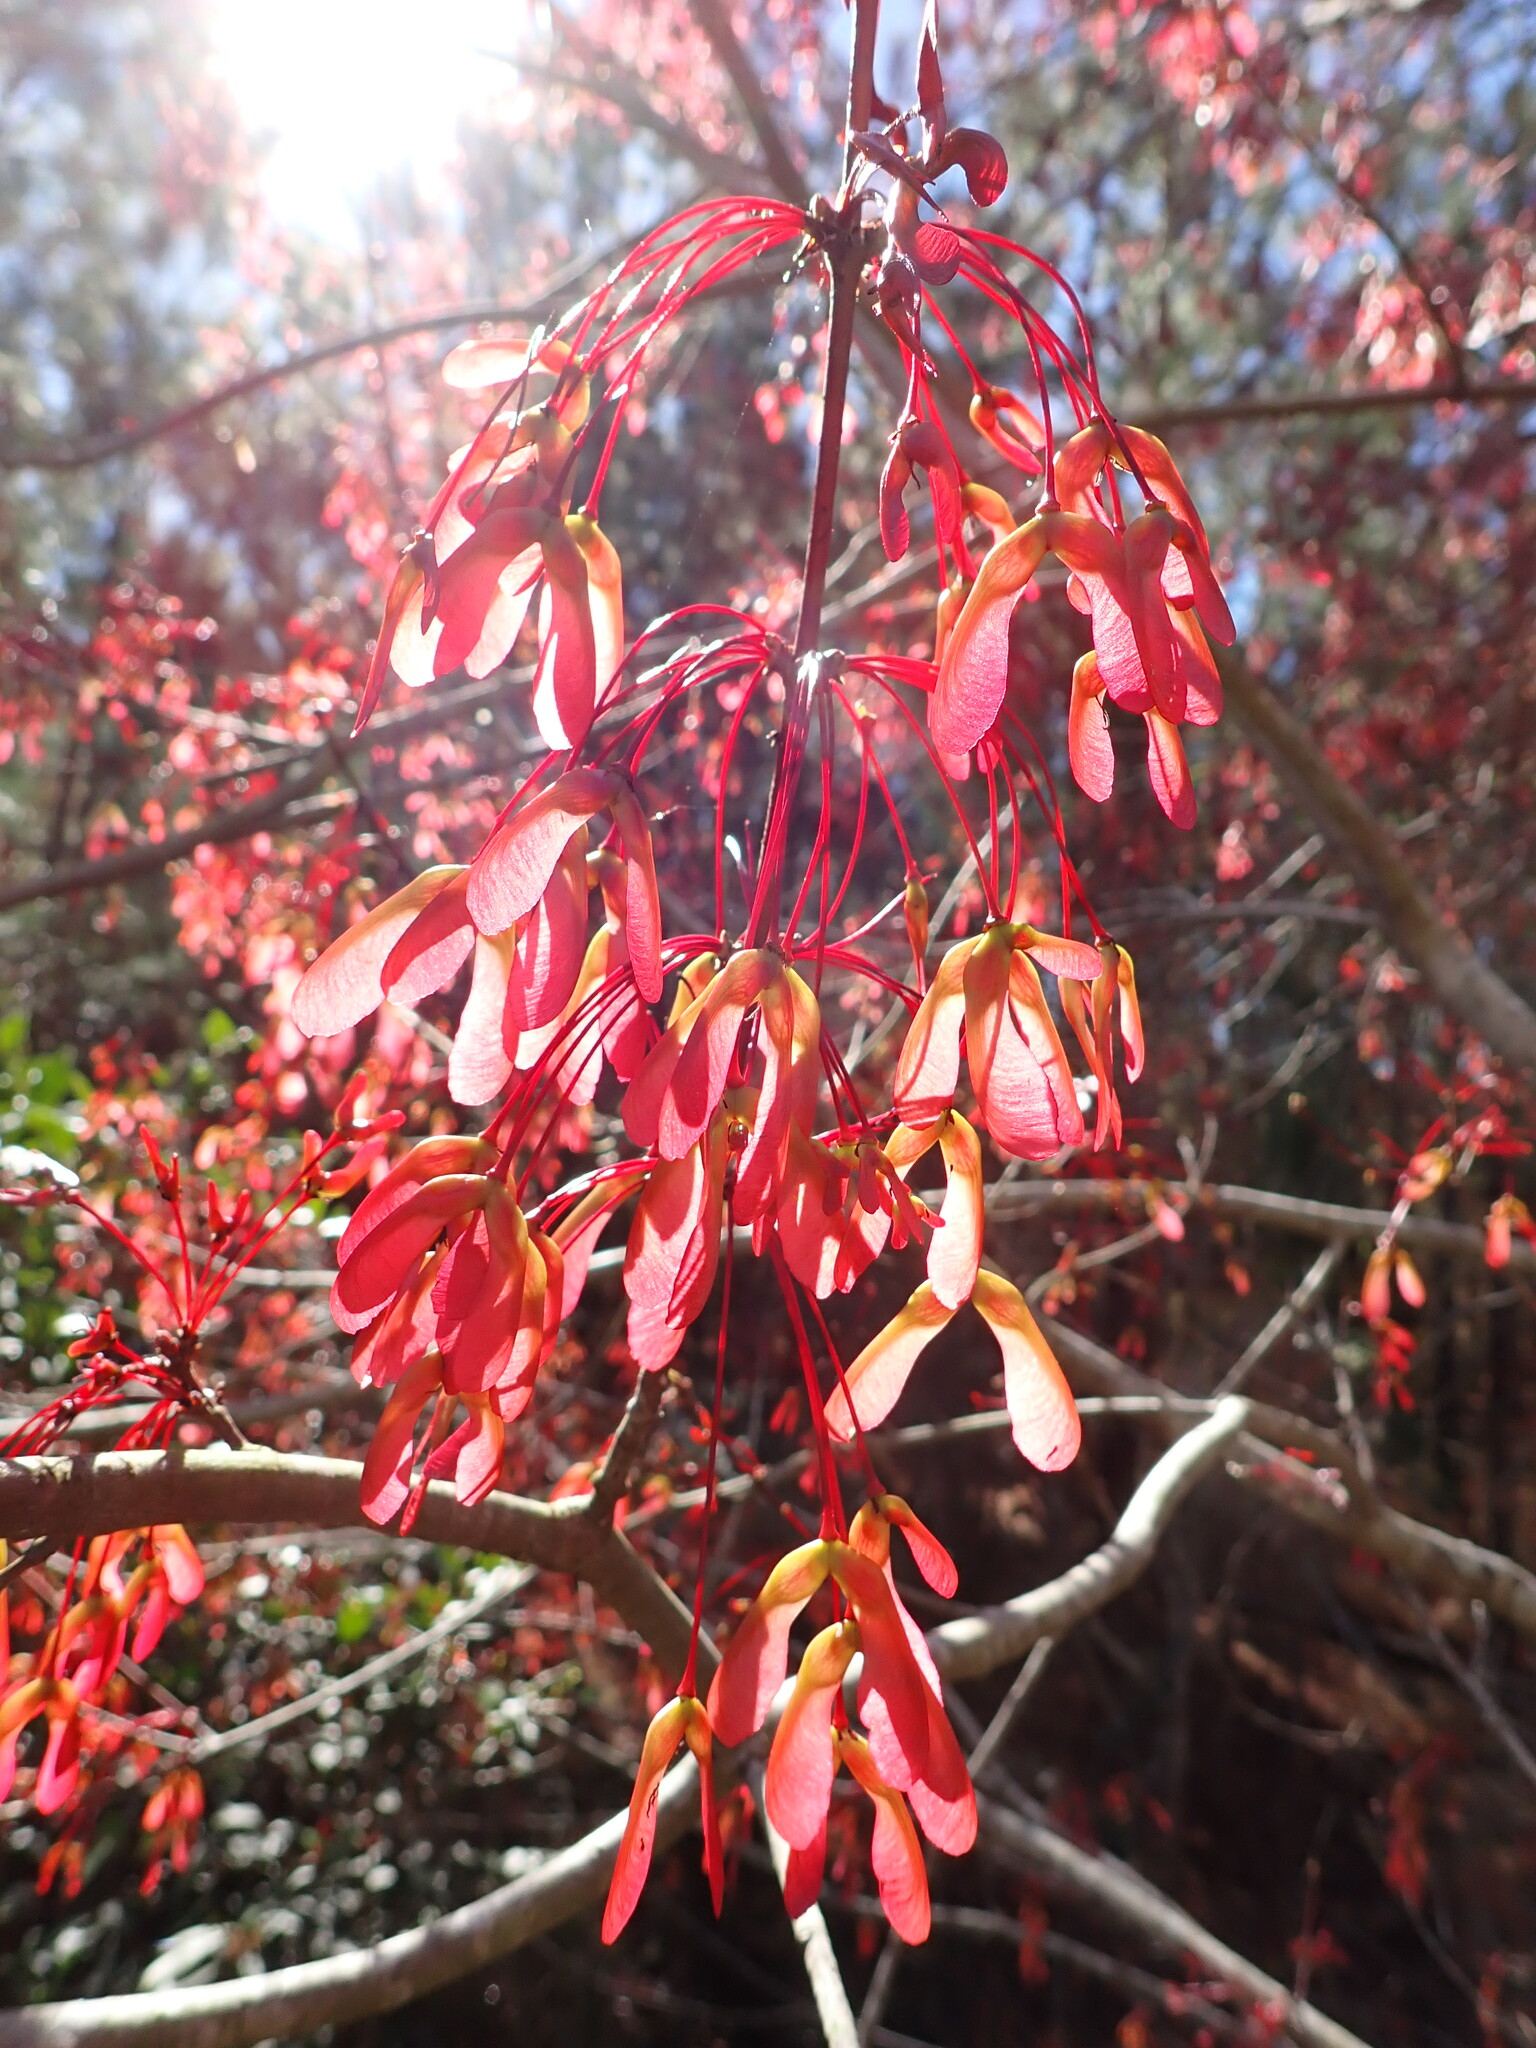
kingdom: Plantae
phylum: Tracheophyta
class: Magnoliopsida
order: Sapindales
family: Sapindaceae
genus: Acer
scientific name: Acer rubrum
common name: Red maple
